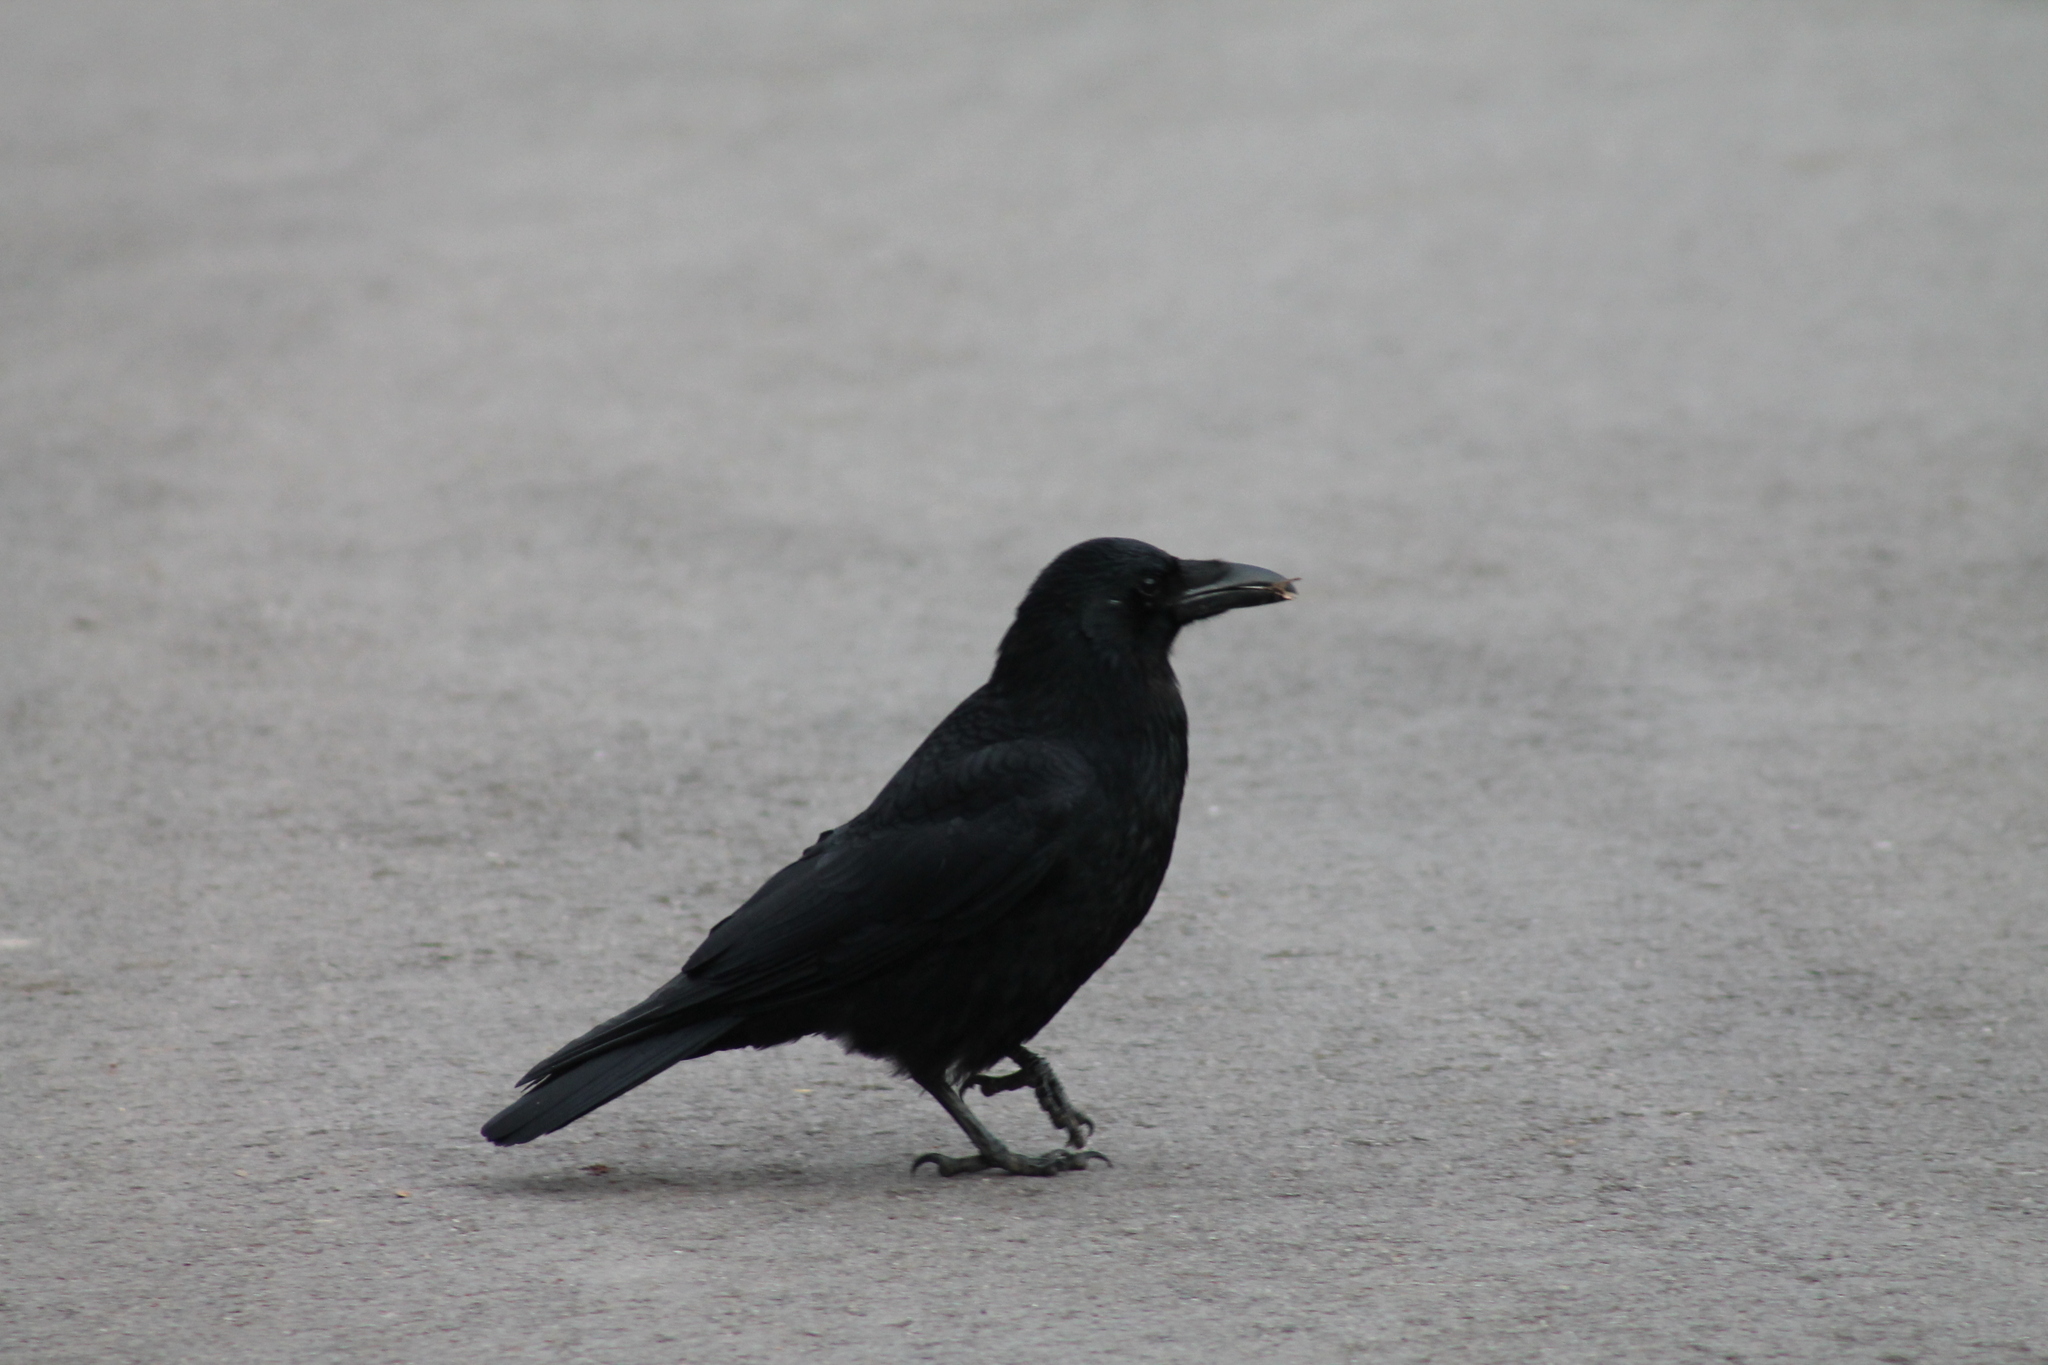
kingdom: Animalia
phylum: Chordata
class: Aves
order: Passeriformes
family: Corvidae
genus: Corvus
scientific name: Corvus corone
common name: Carrion crow
